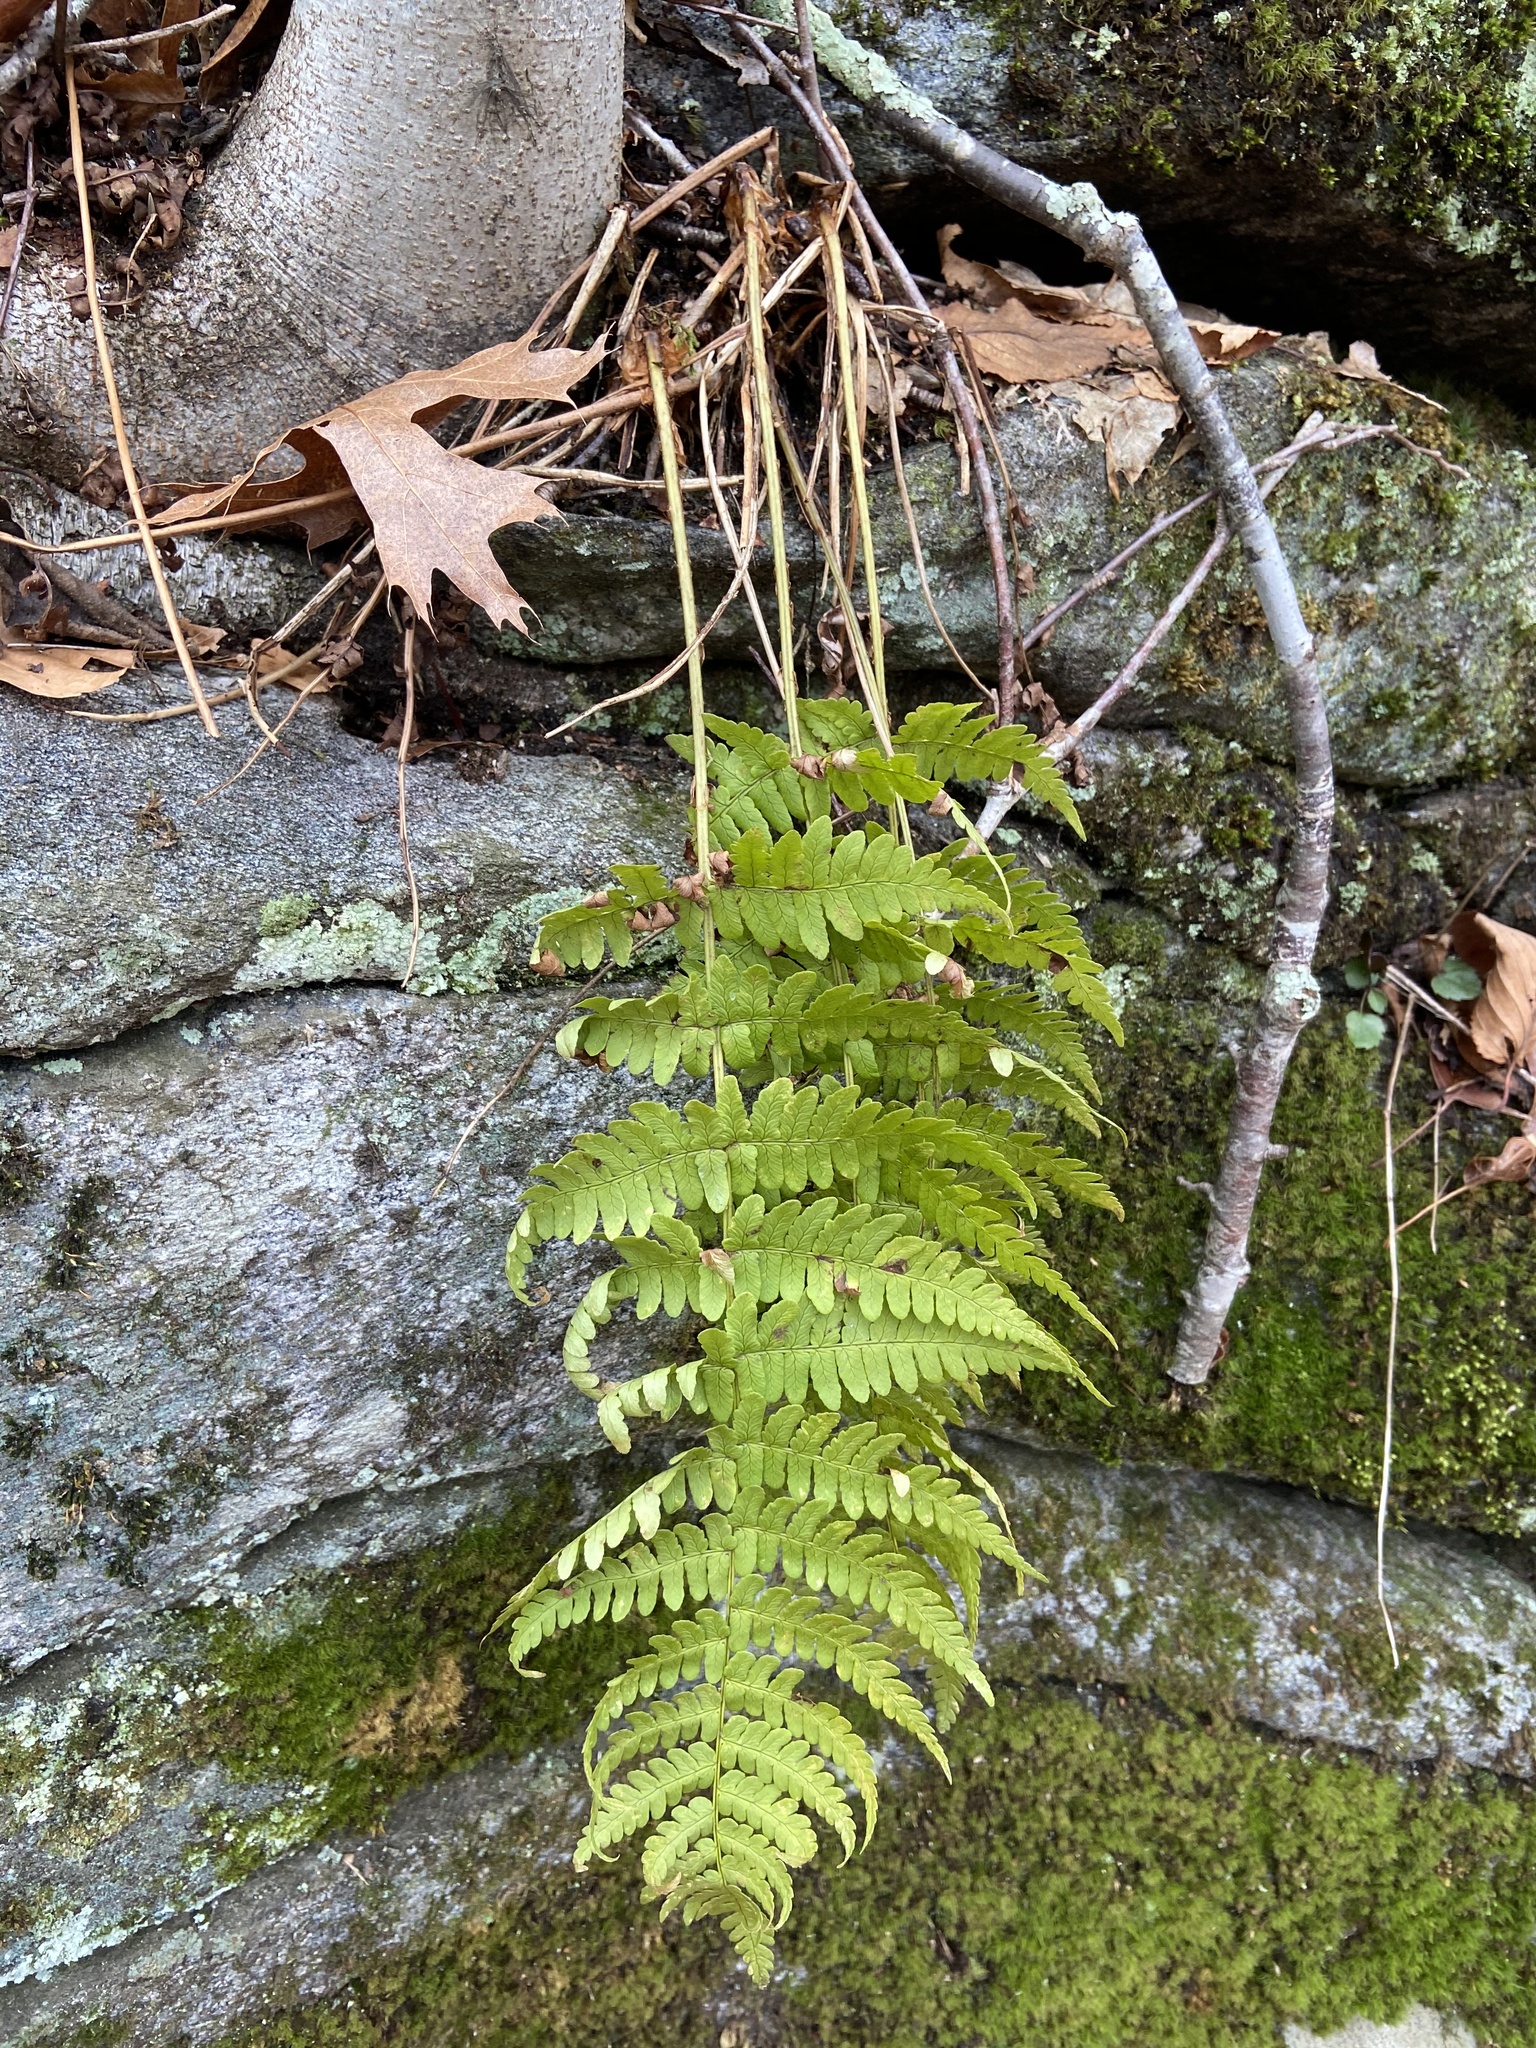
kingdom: Plantae
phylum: Tracheophyta
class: Polypodiopsida
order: Polypodiales
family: Dryopteridaceae
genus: Dryopteris
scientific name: Dryopteris marginalis
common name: Marginal wood fern
